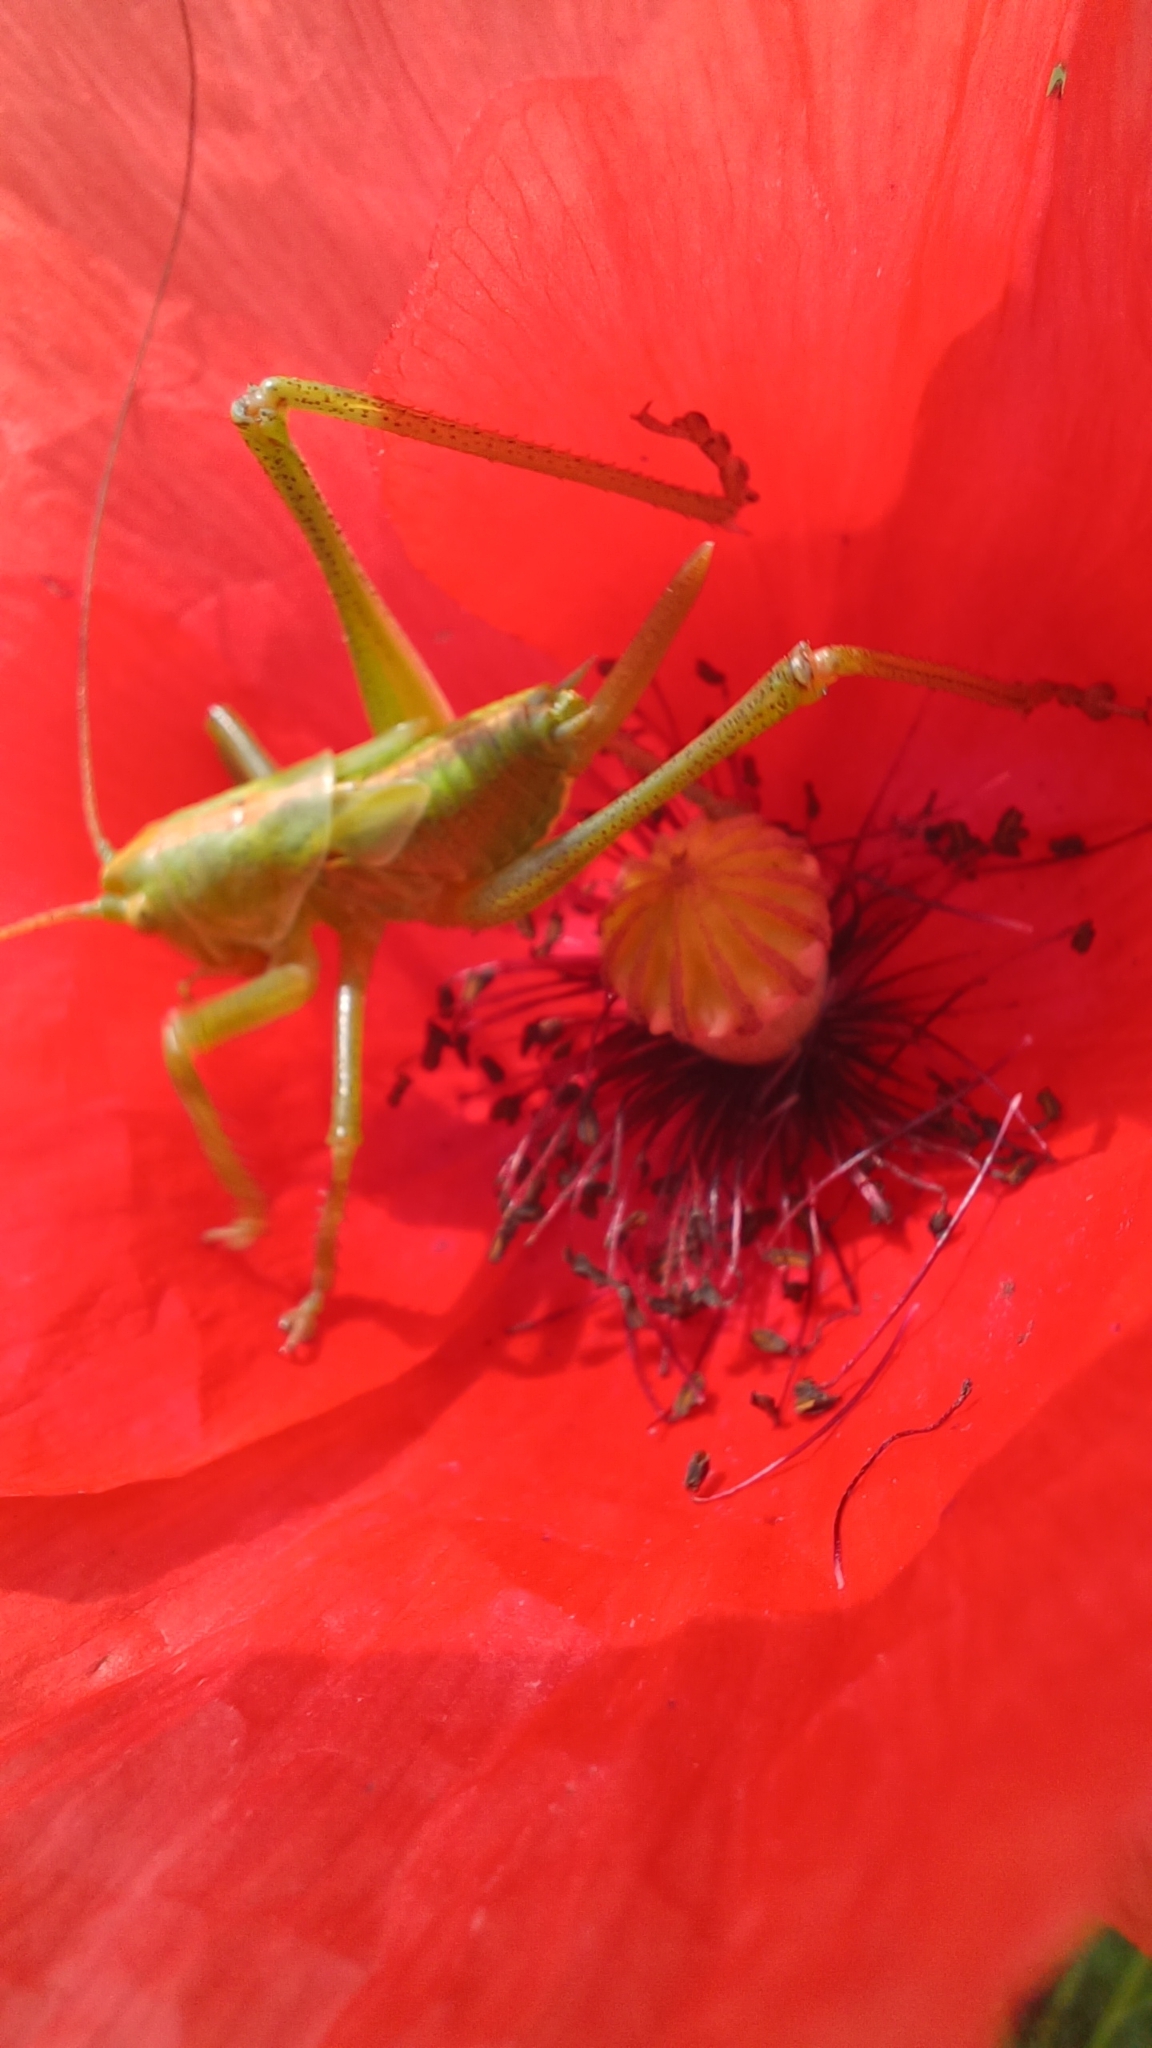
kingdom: Animalia
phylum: Arthropoda
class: Insecta
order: Orthoptera
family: Tettigoniidae
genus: Tettigonia
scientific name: Tettigonia viridissima
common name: Great green bush-cricket
